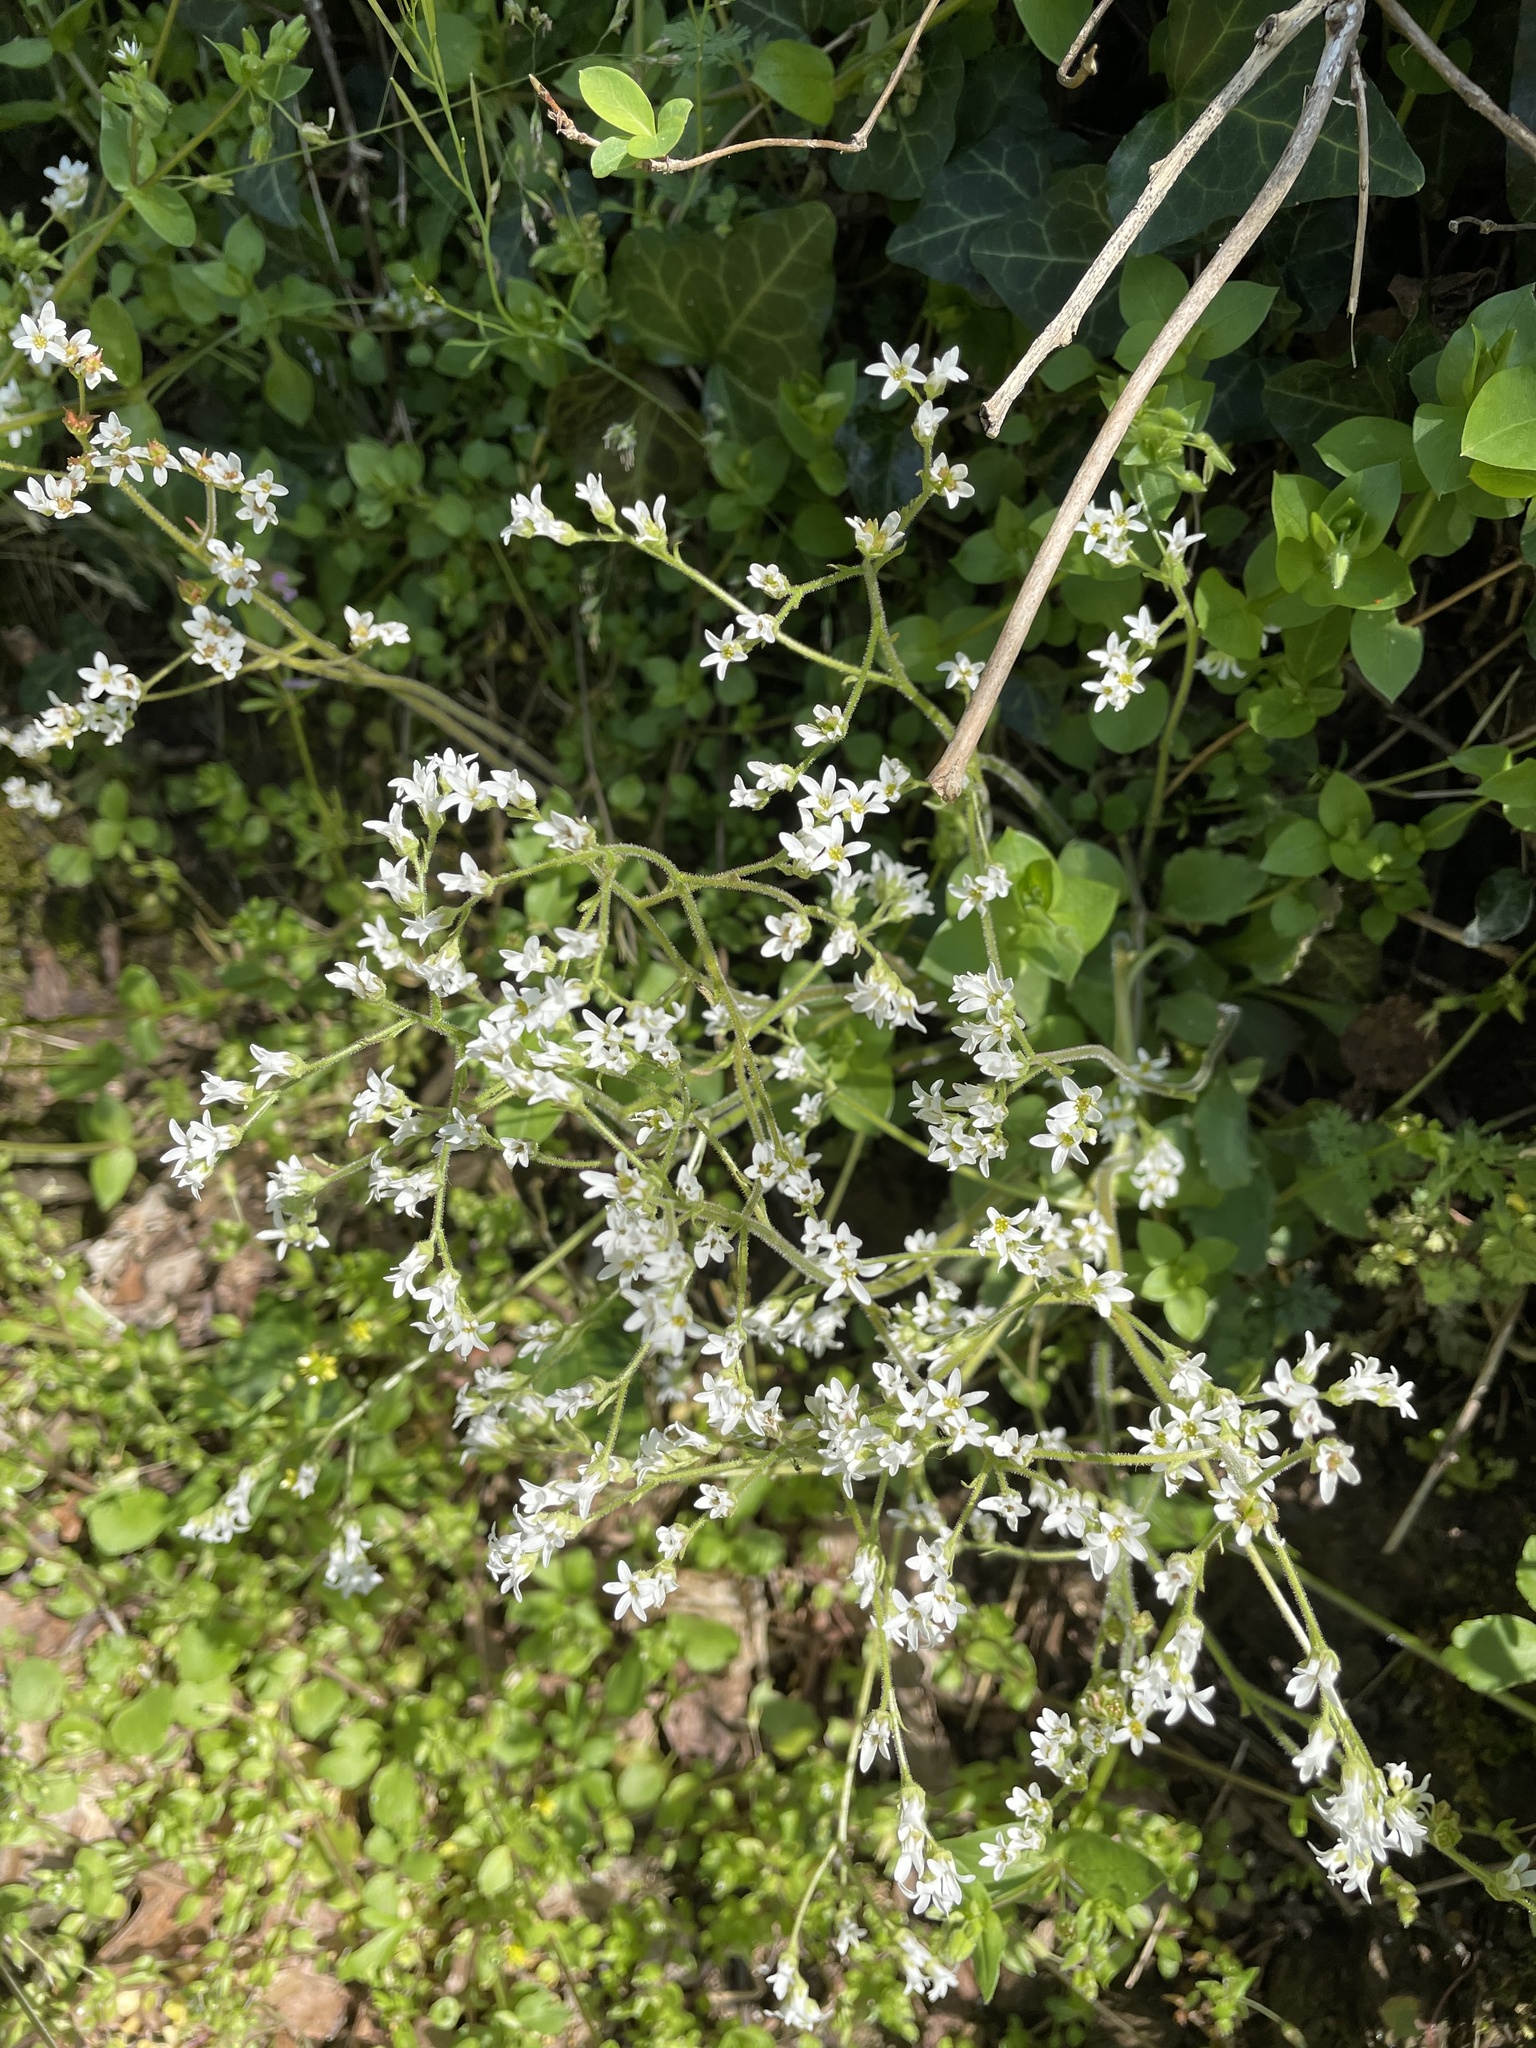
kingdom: Plantae
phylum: Tracheophyta
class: Magnoliopsida
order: Saxifragales
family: Saxifragaceae
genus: Micranthes
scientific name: Micranthes virginiensis
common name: Early saxifrage
